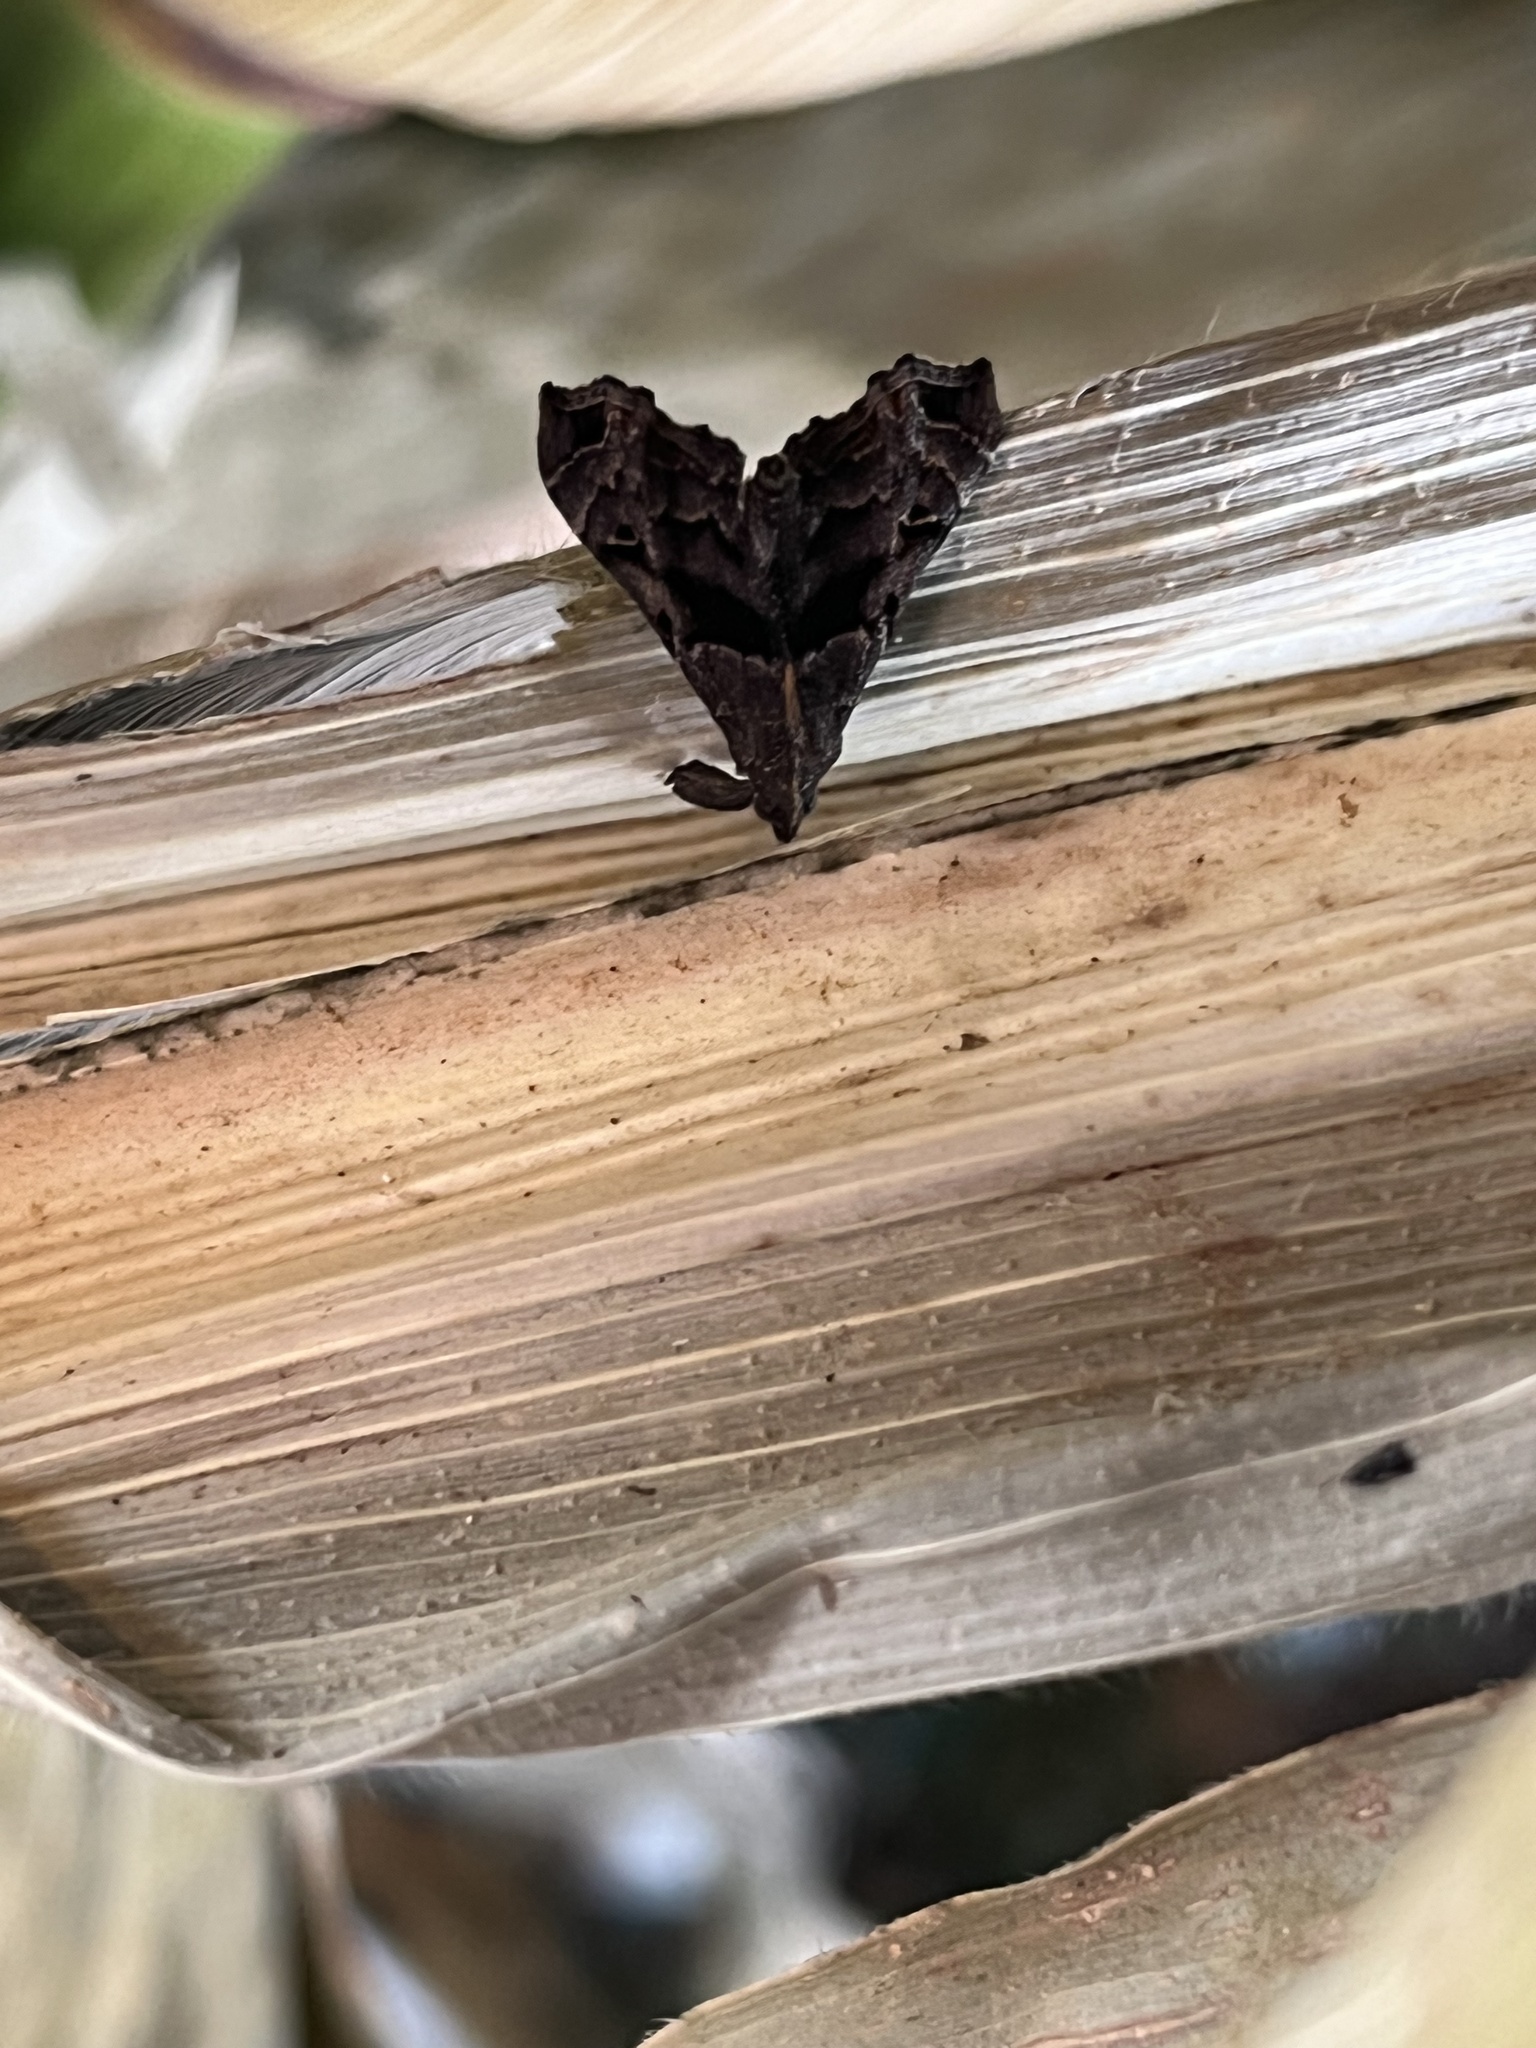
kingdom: Animalia
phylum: Arthropoda
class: Insecta
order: Lepidoptera
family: Erebidae
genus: Palthis
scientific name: Palthis asopialis
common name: Faint-spotted palthis moth
